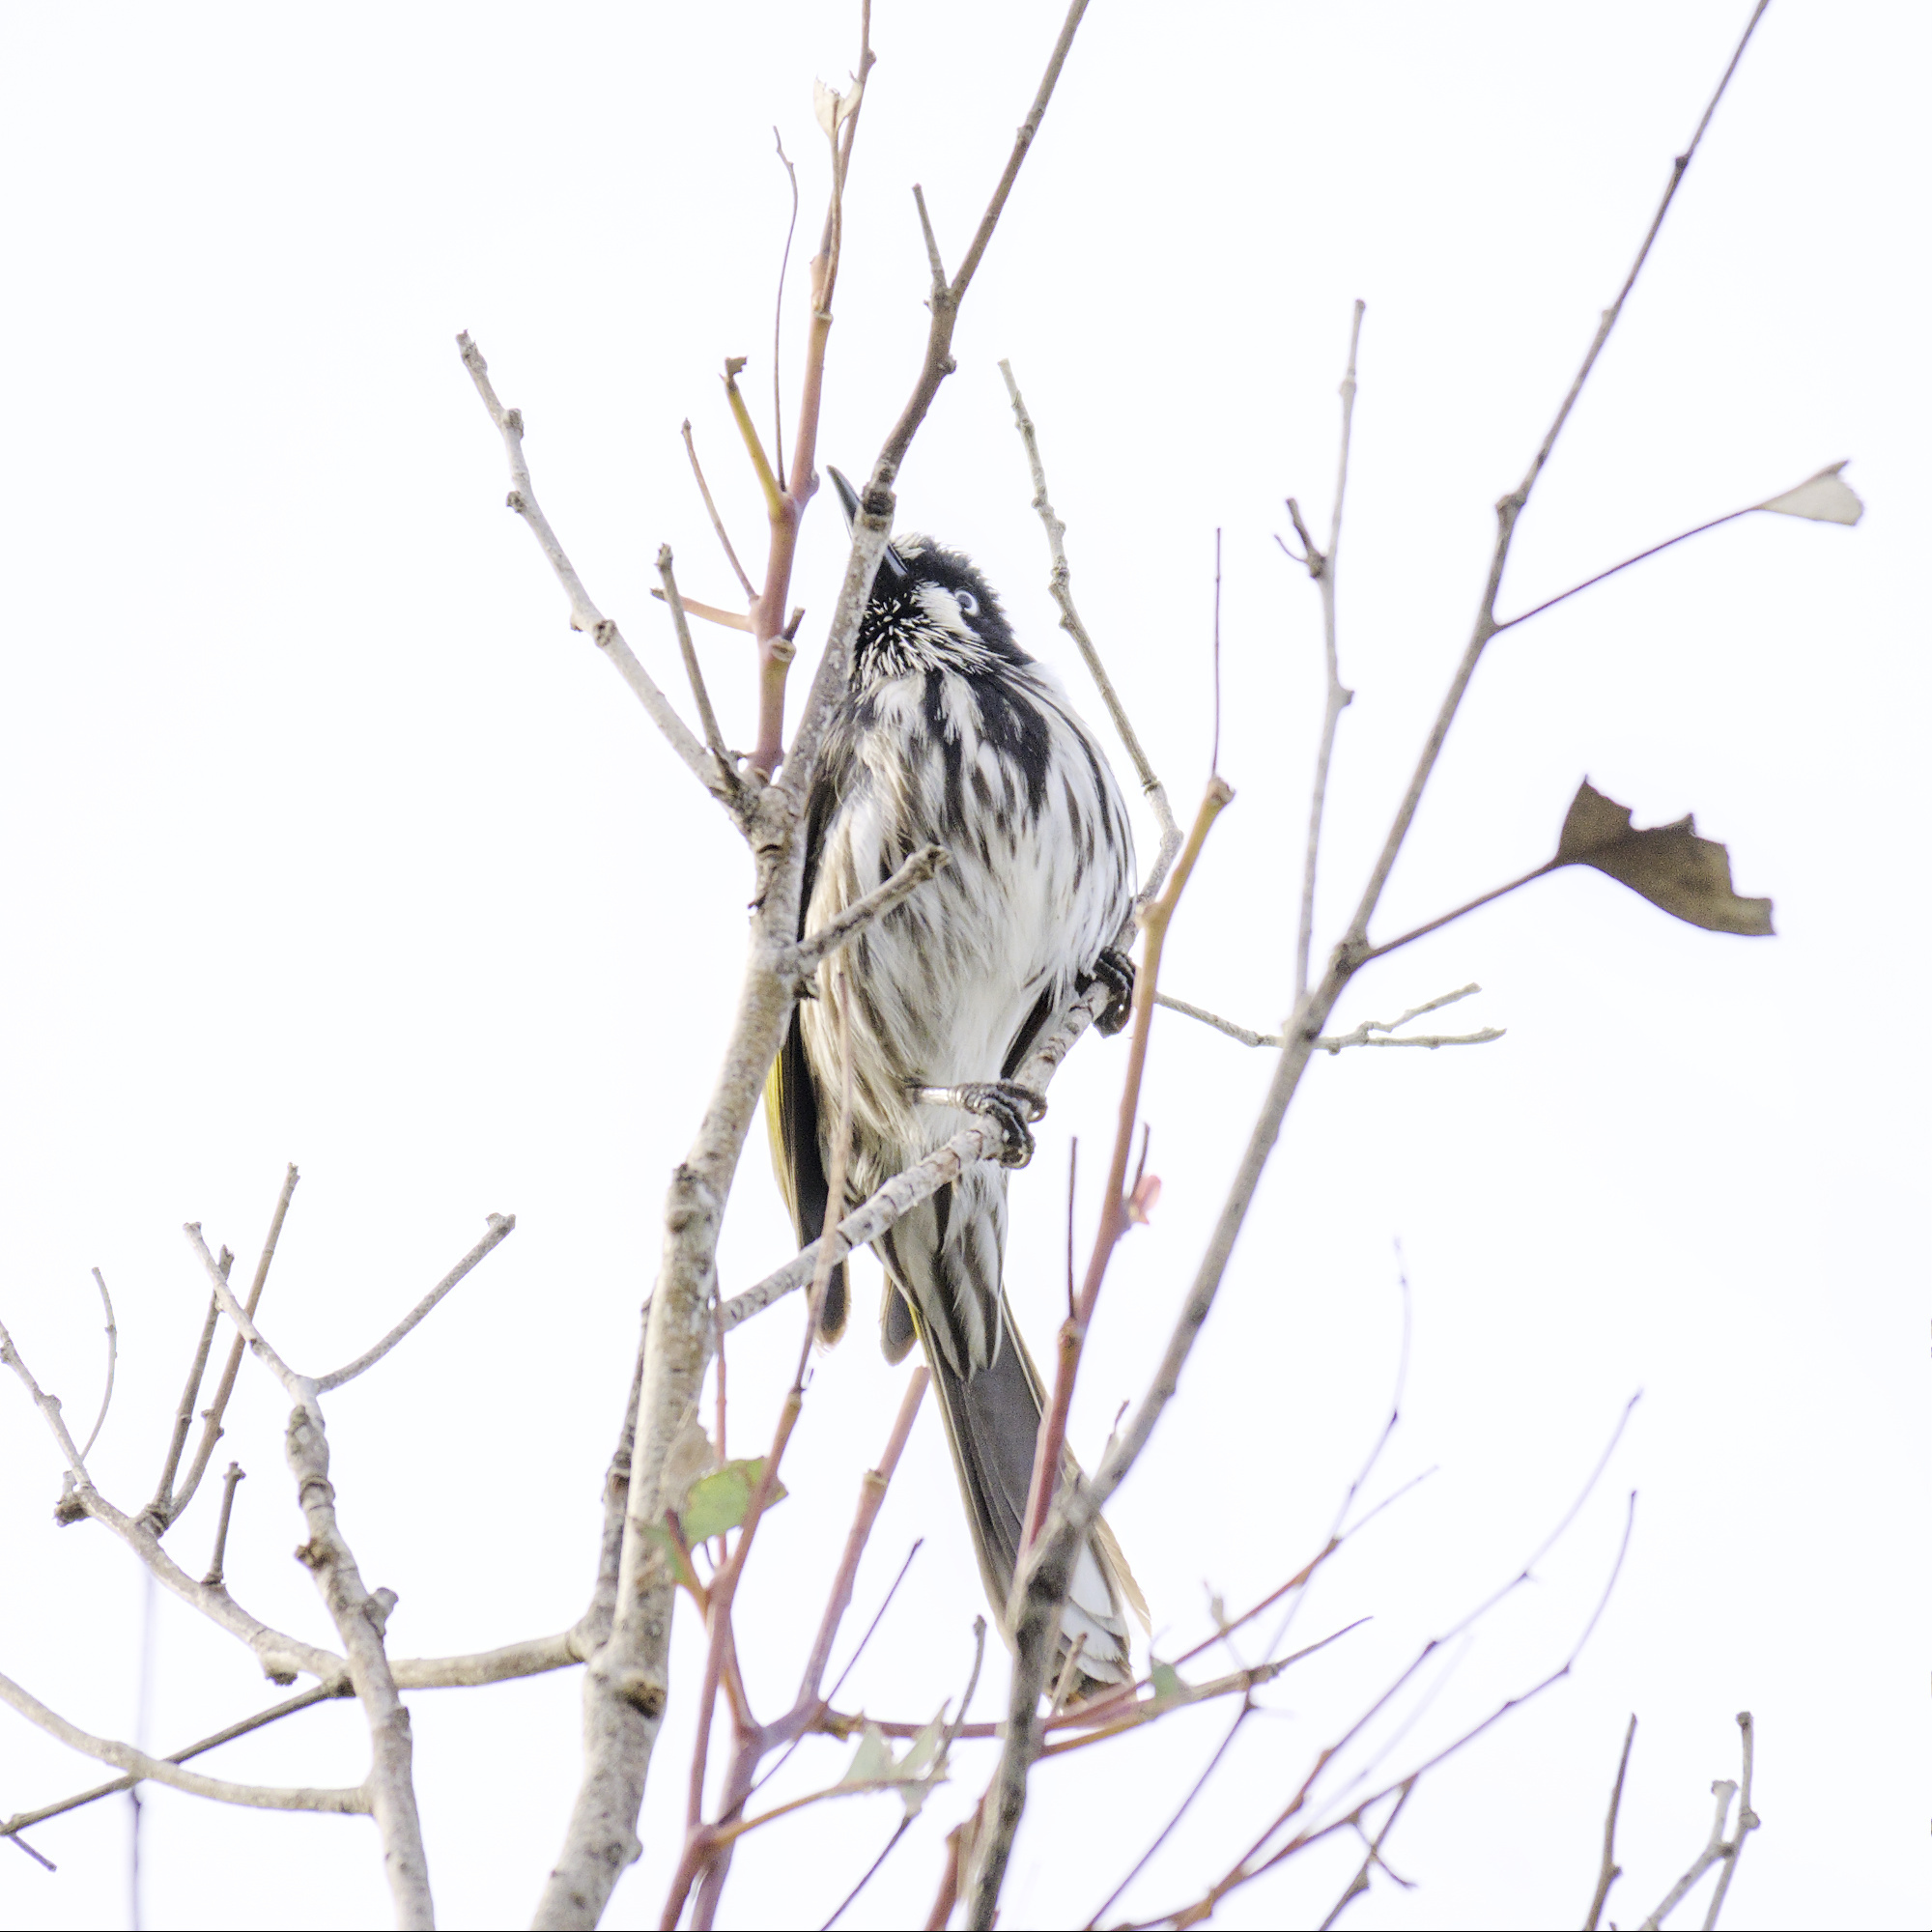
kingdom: Animalia
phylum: Chordata
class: Aves
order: Passeriformes
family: Meliphagidae
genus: Phylidonyris
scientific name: Phylidonyris novaehollandiae
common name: New holland honeyeater
